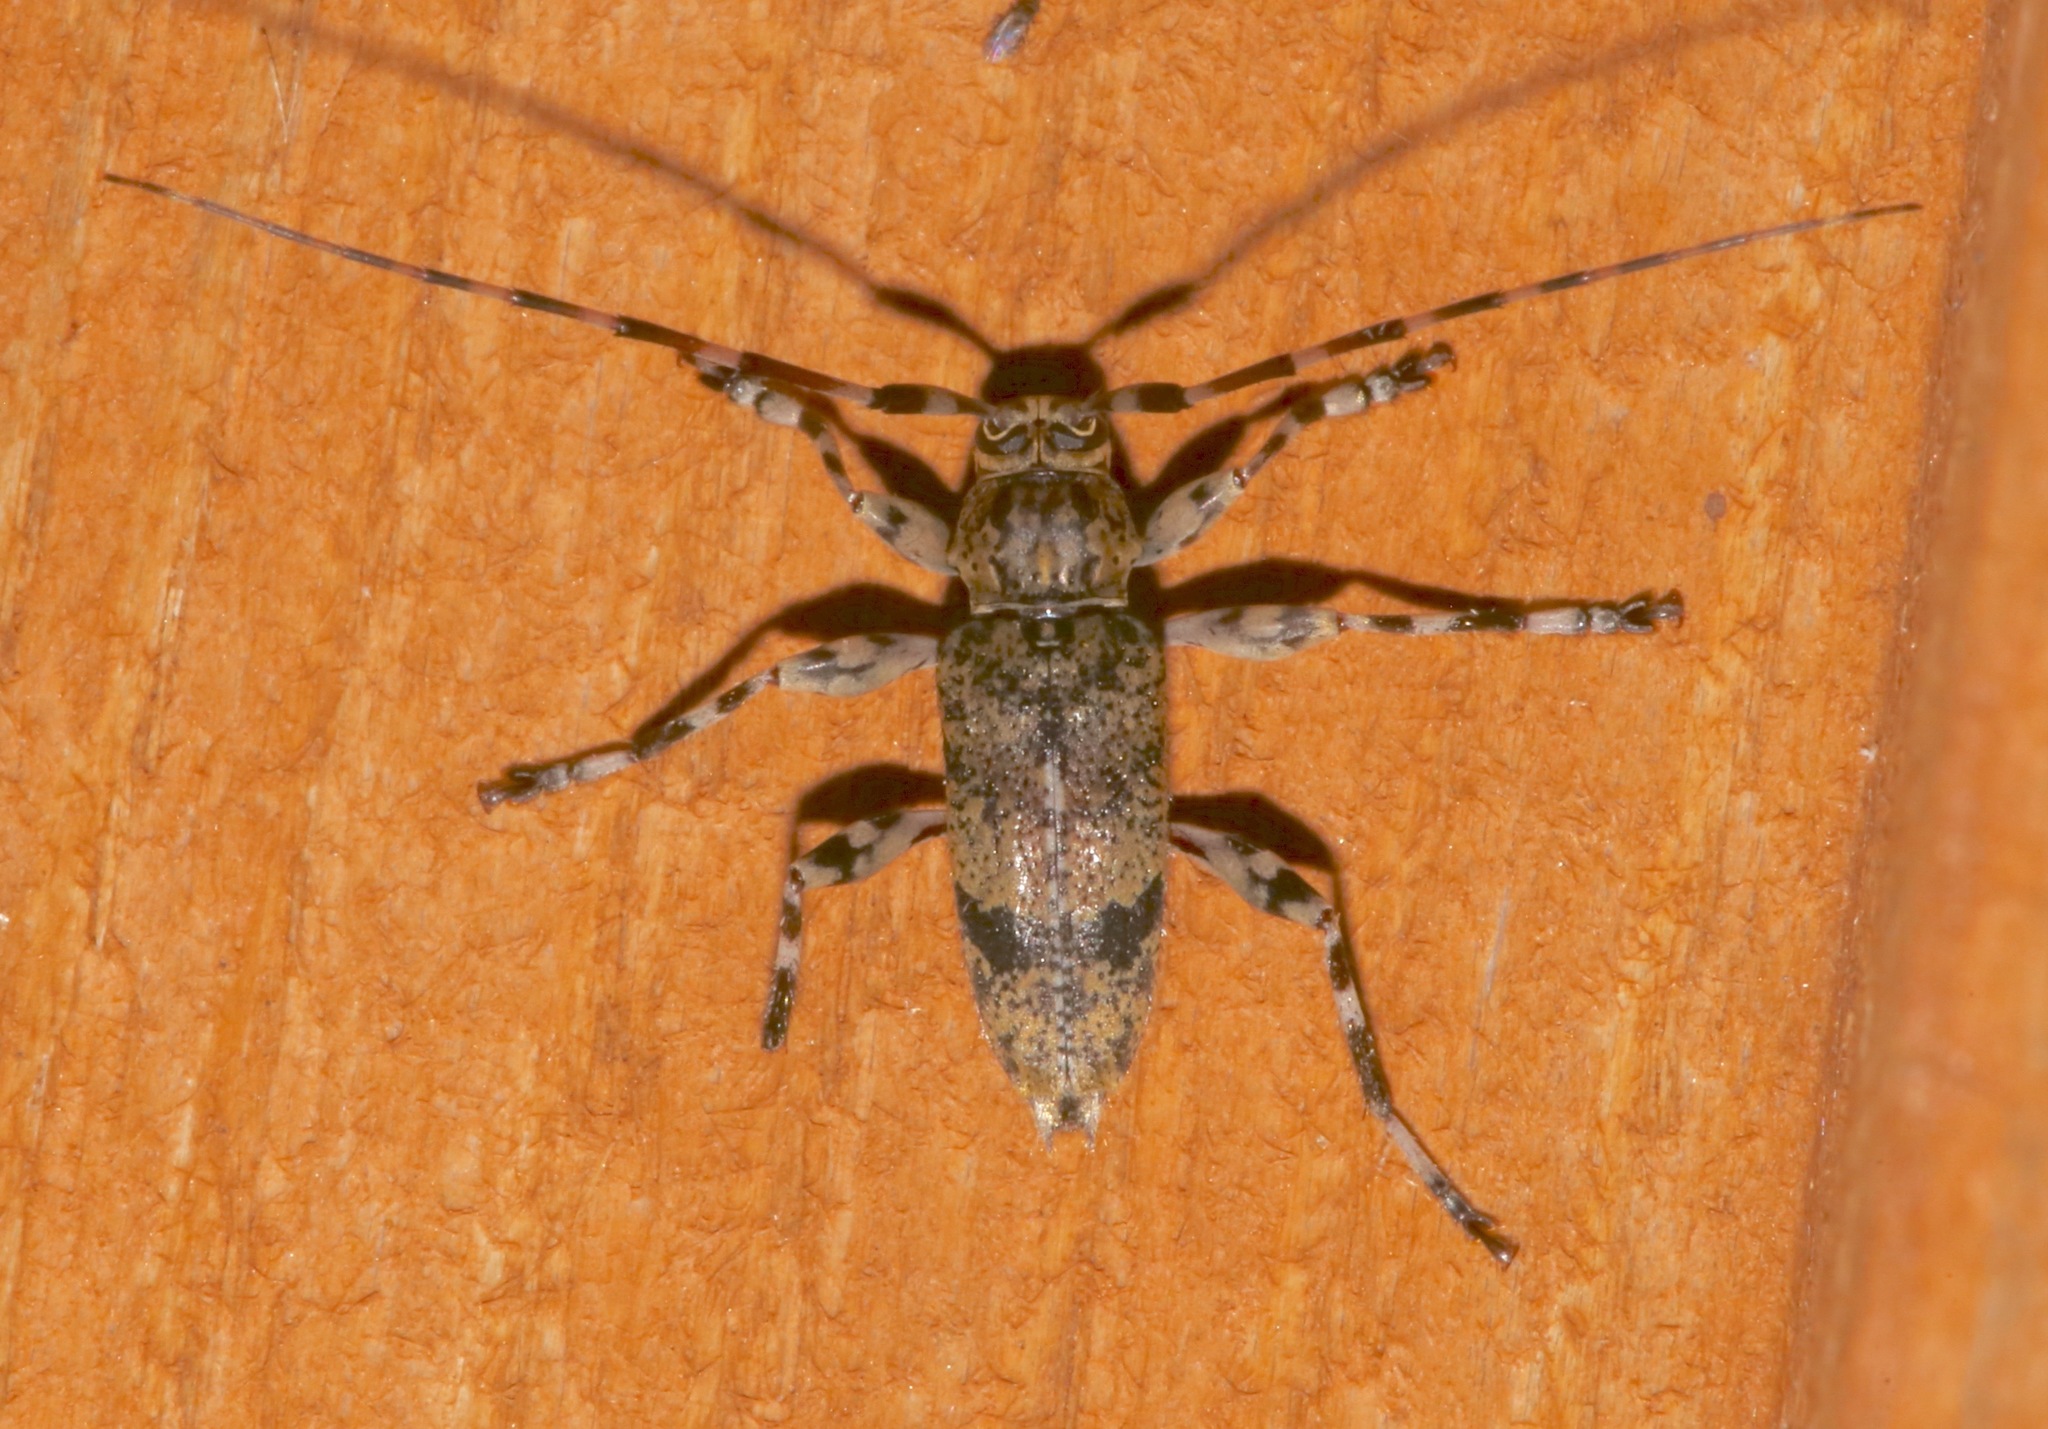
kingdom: Animalia
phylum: Arthropoda
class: Insecta
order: Coleoptera
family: Cerambycidae
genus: Graphisurus
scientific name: Graphisurus fasciatus
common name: Banded graphisurus
